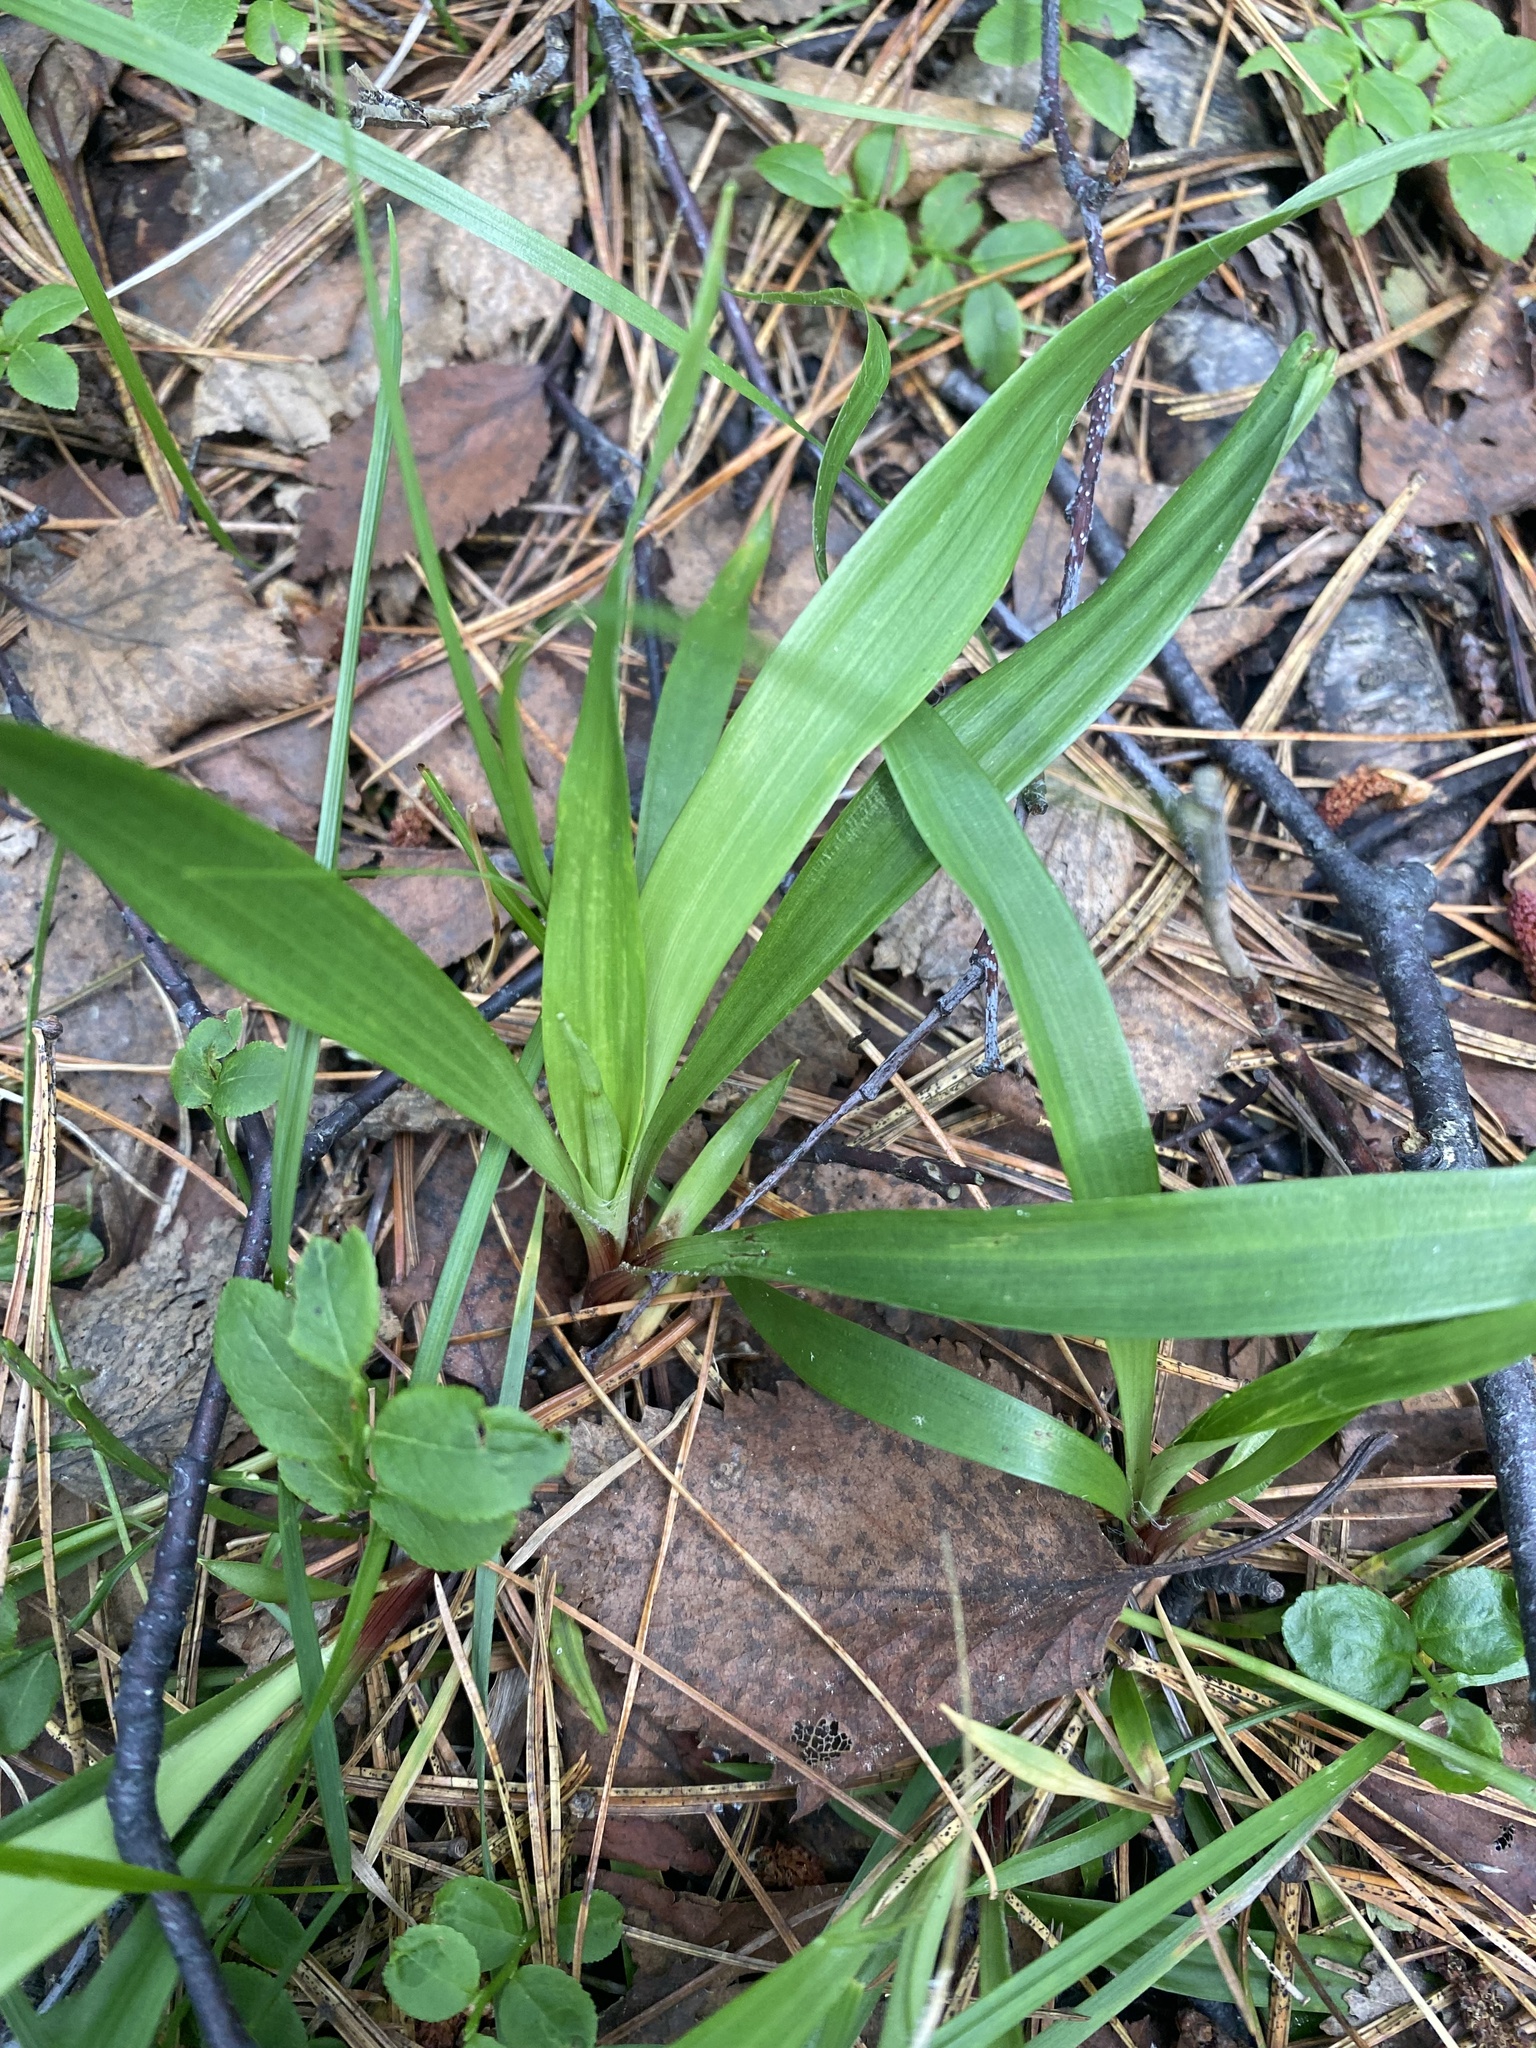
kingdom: Plantae
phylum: Tracheophyta
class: Liliopsida
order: Poales
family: Juncaceae
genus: Luzula
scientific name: Luzula pilosa
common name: Hairy wood-rush
